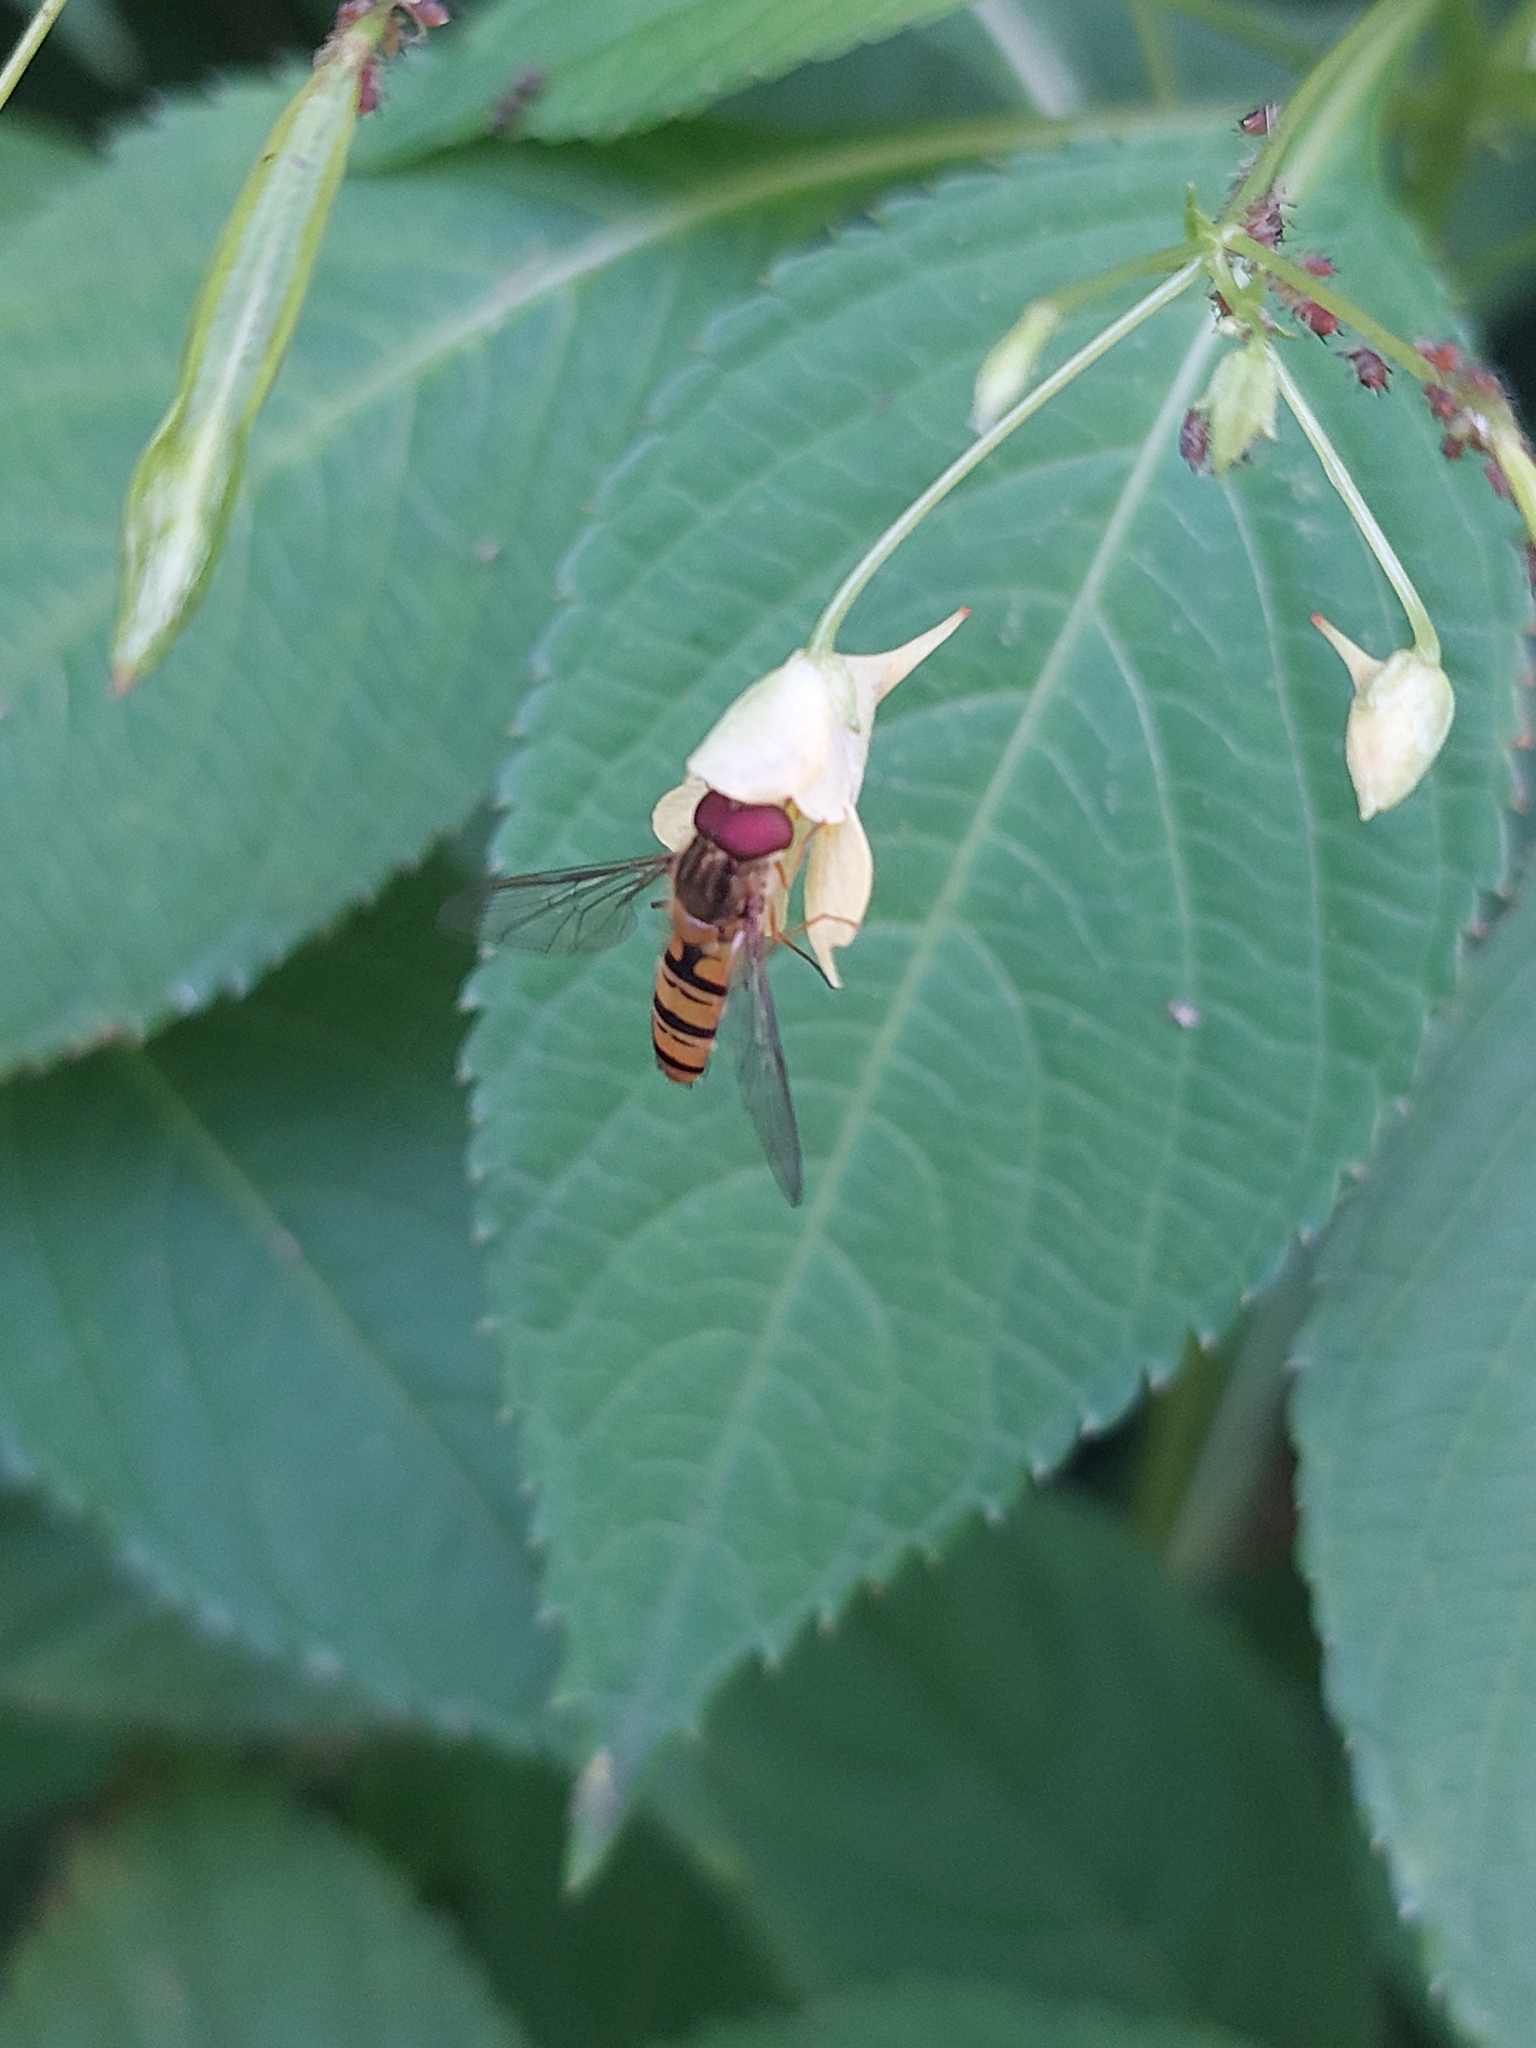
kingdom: Animalia
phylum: Arthropoda
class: Insecta
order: Diptera
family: Syrphidae
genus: Episyrphus
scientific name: Episyrphus balteatus
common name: Marmalade hoverfly
